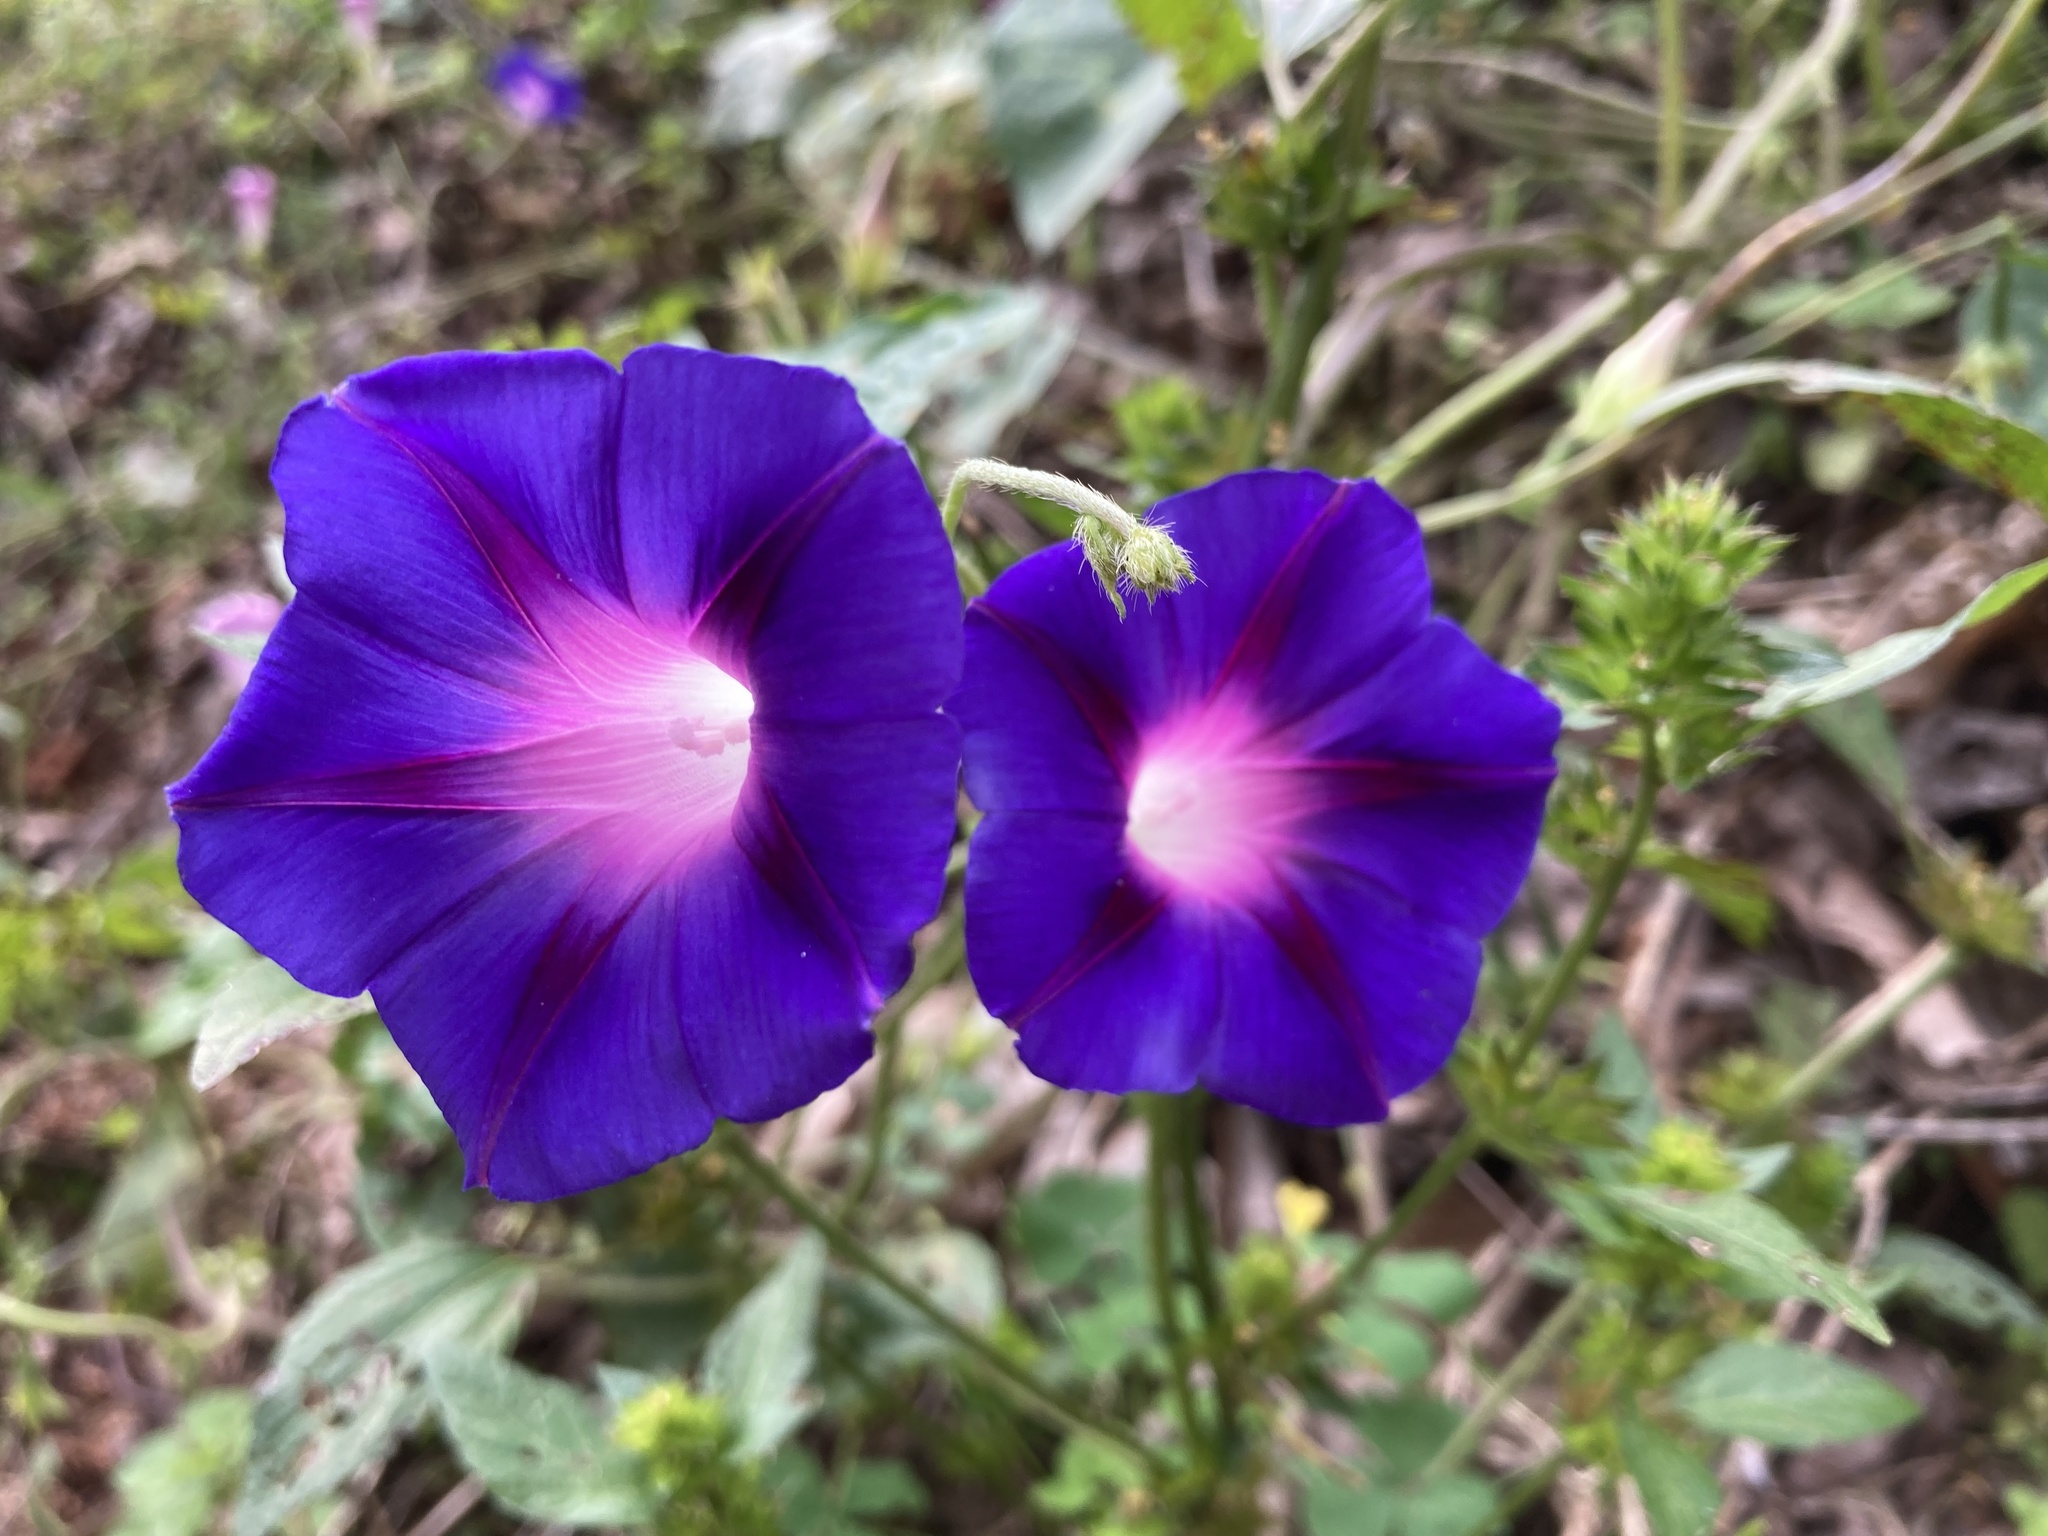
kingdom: Plantae
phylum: Tracheophyta
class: Magnoliopsida
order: Solanales
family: Convolvulaceae
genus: Ipomoea
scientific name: Ipomoea purpurea
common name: Common morning-glory
